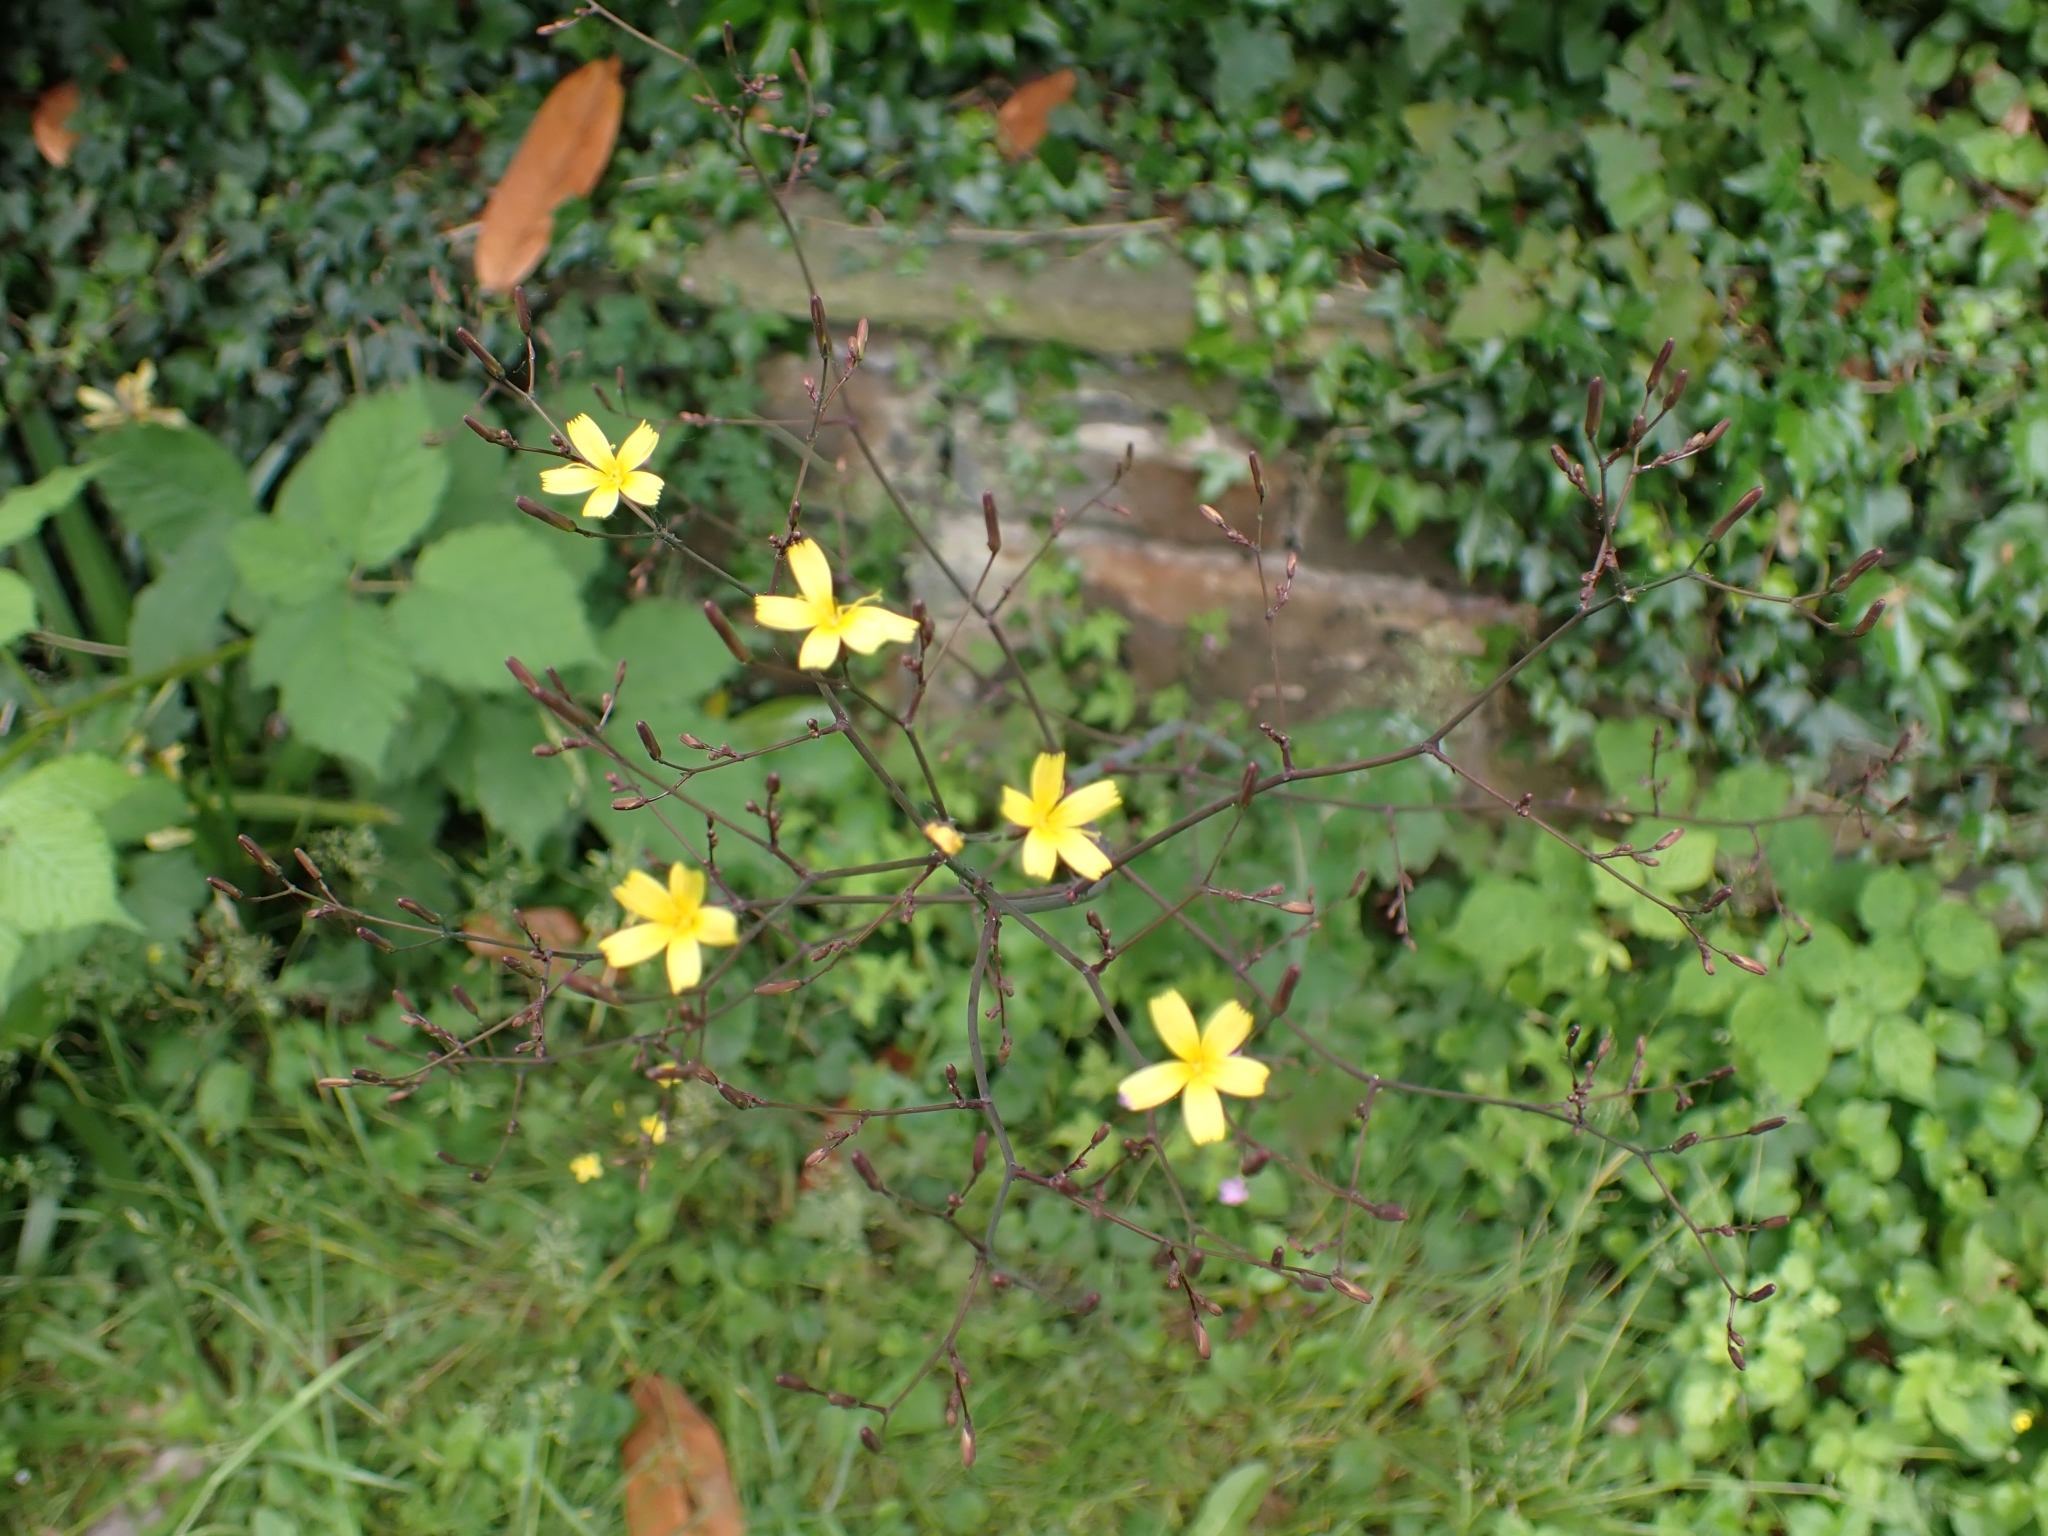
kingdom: Plantae
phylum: Tracheophyta
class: Magnoliopsida
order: Asterales
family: Asteraceae
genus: Mycelis
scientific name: Mycelis muralis
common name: Wall lettuce
